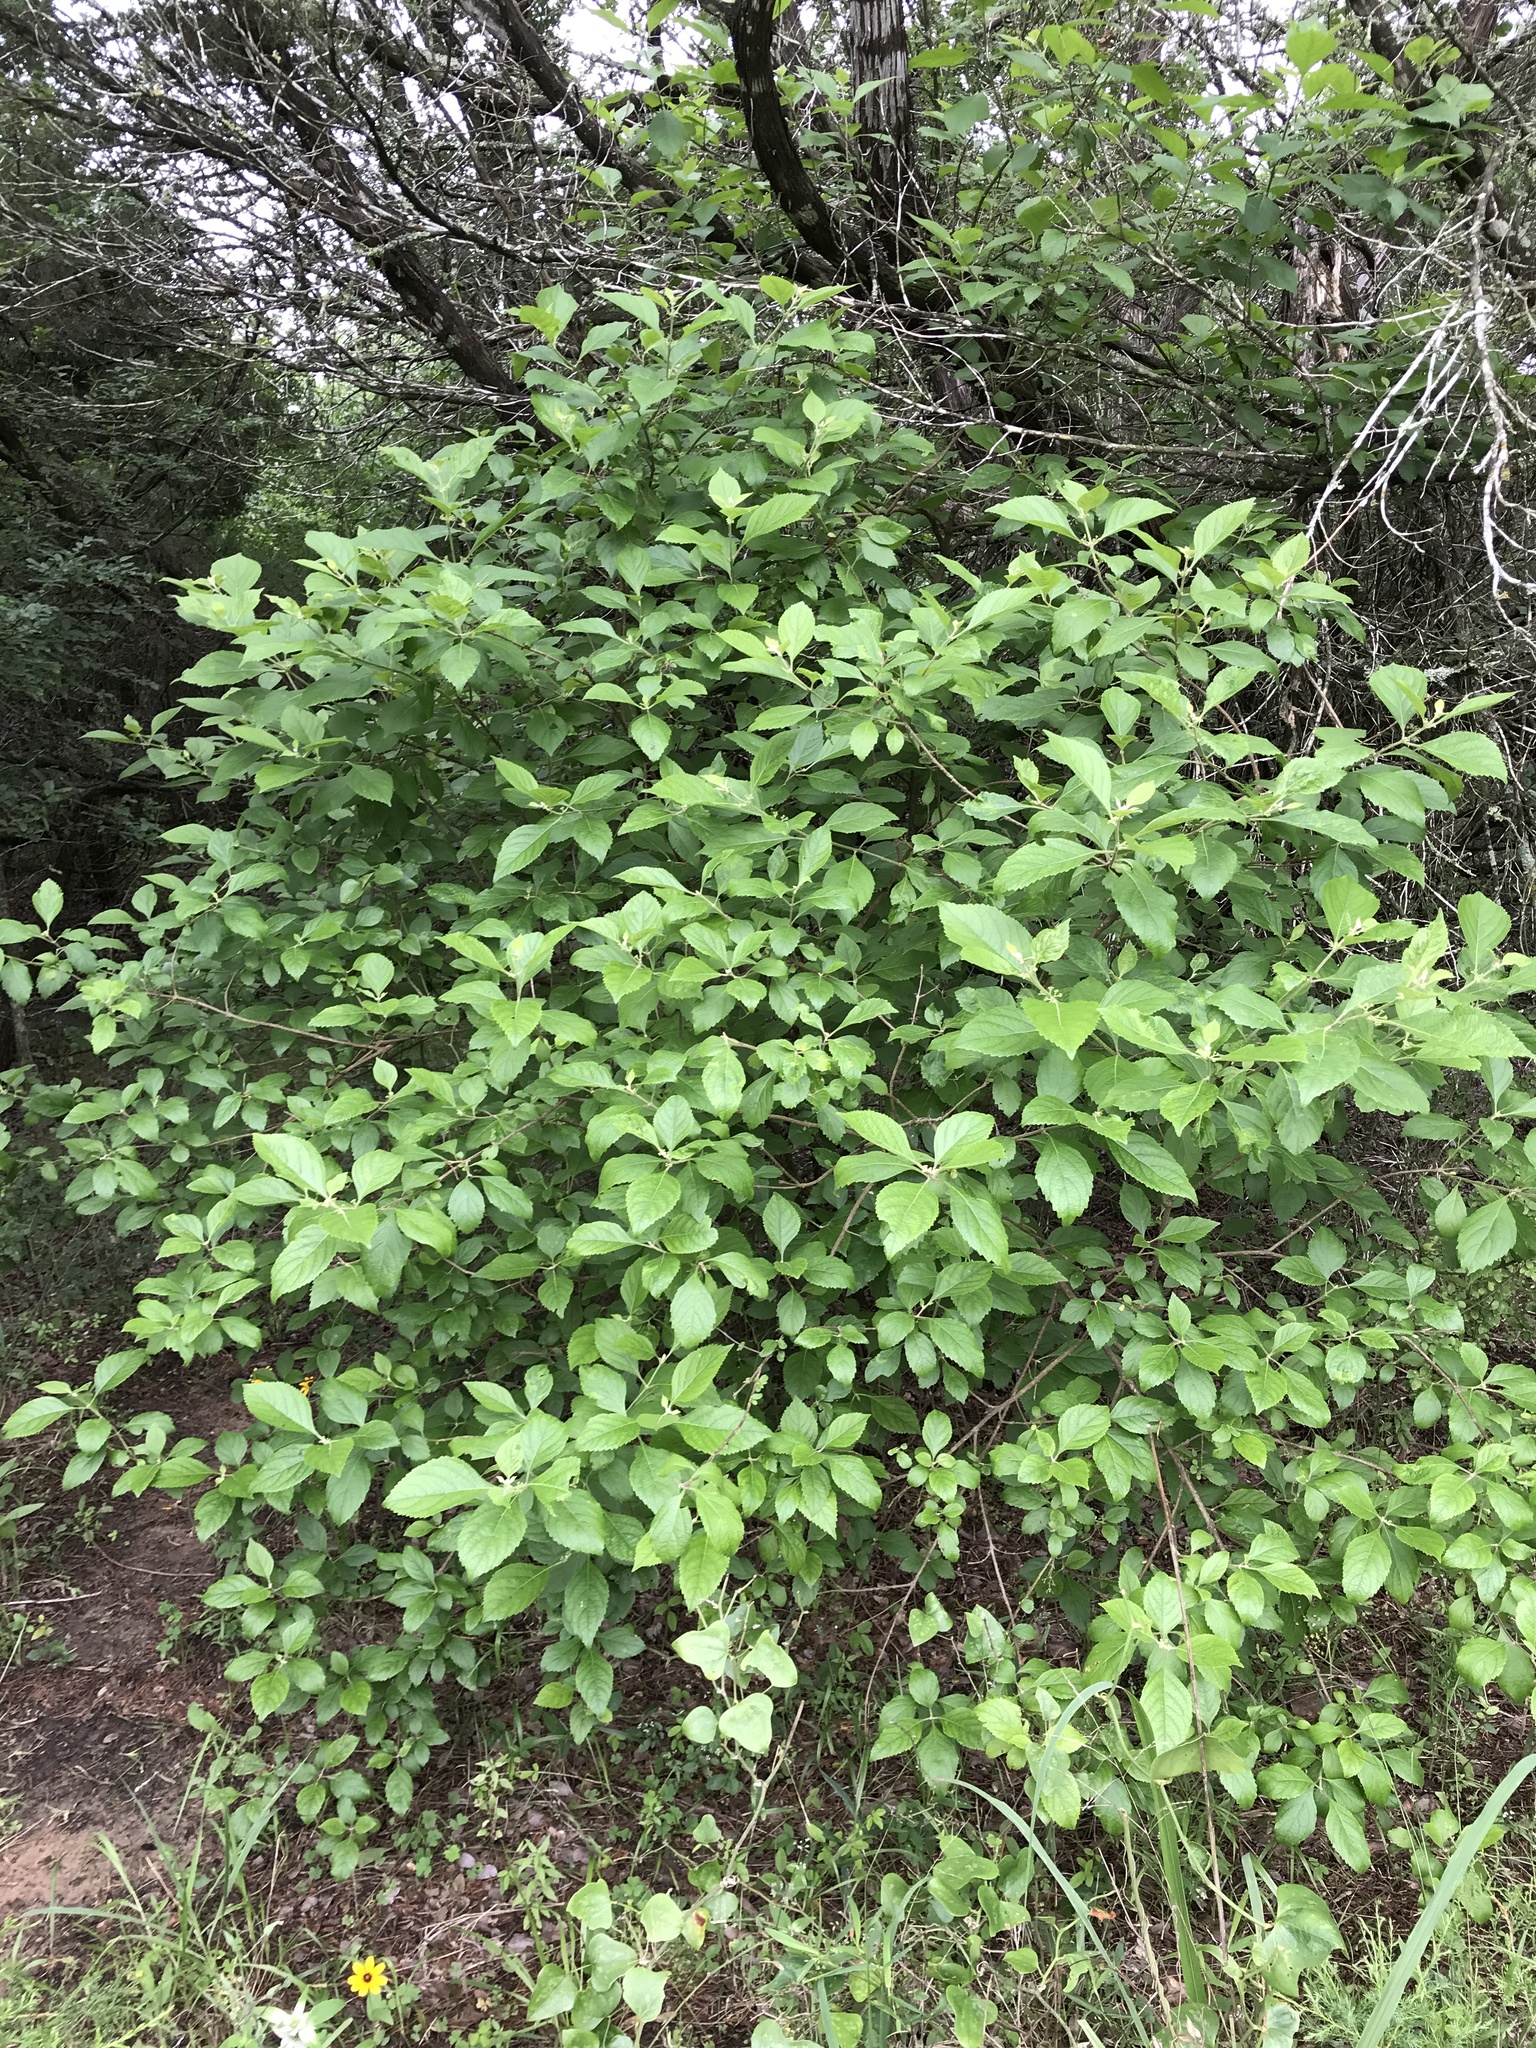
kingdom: Plantae
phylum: Tracheophyta
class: Magnoliopsida
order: Lamiales
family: Lamiaceae
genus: Callicarpa
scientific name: Callicarpa americana
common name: American beautyberry
